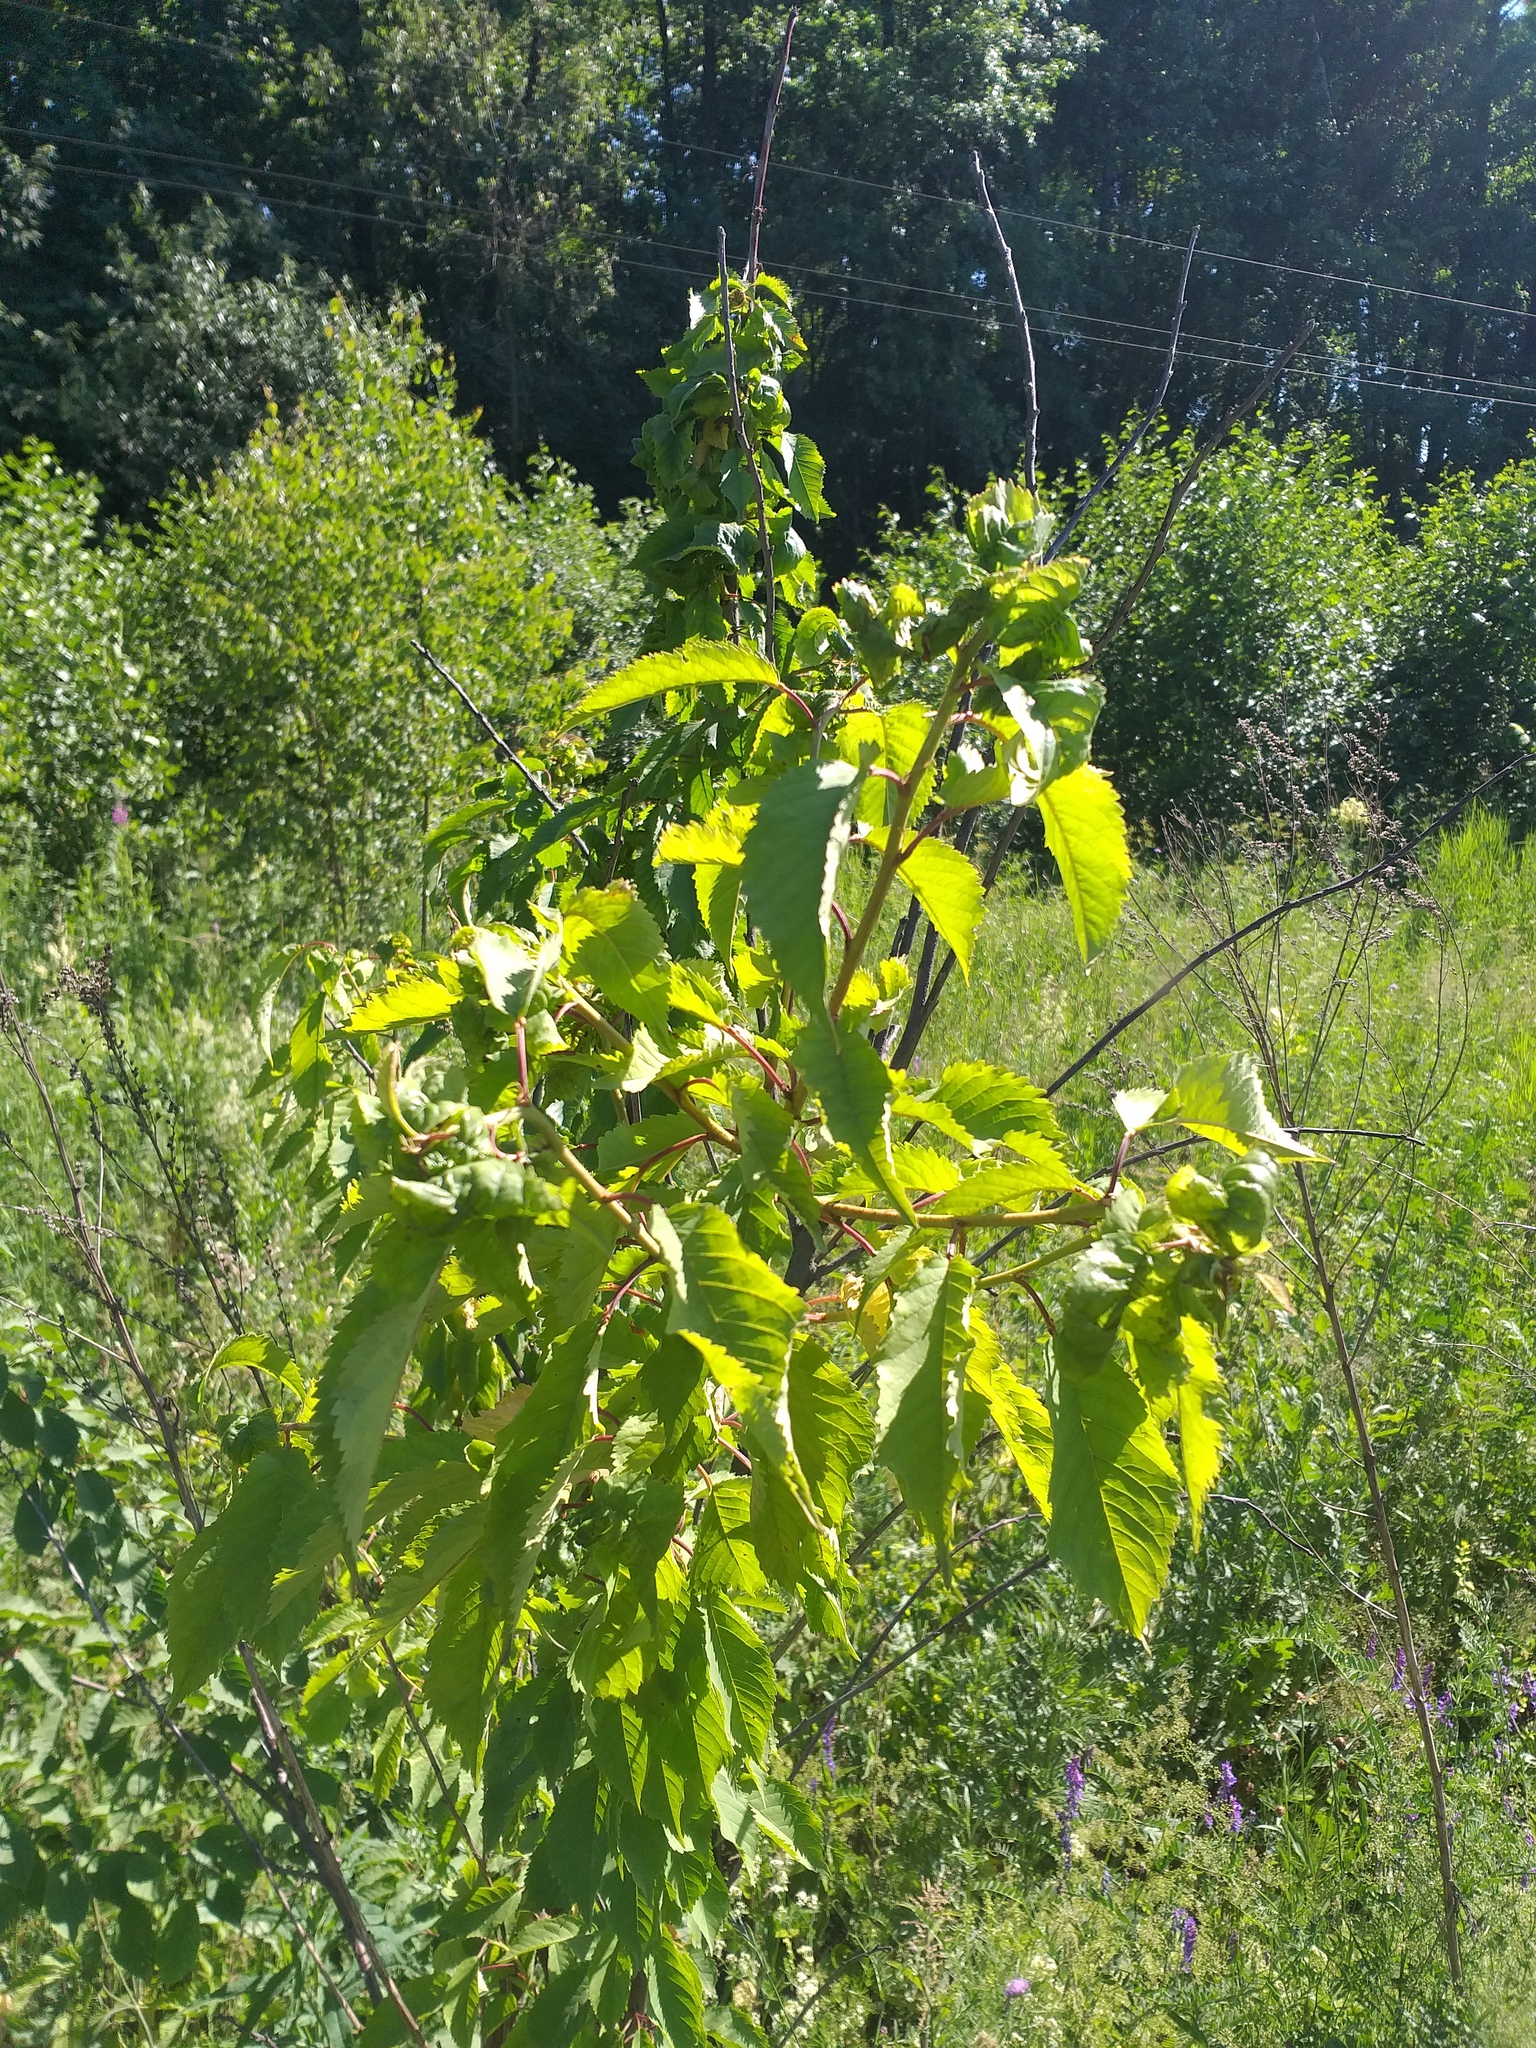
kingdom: Plantae
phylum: Tracheophyta
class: Magnoliopsida
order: Rosales
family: Rosaceae
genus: Prunus
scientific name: Prunus avium
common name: Sweet cherry
